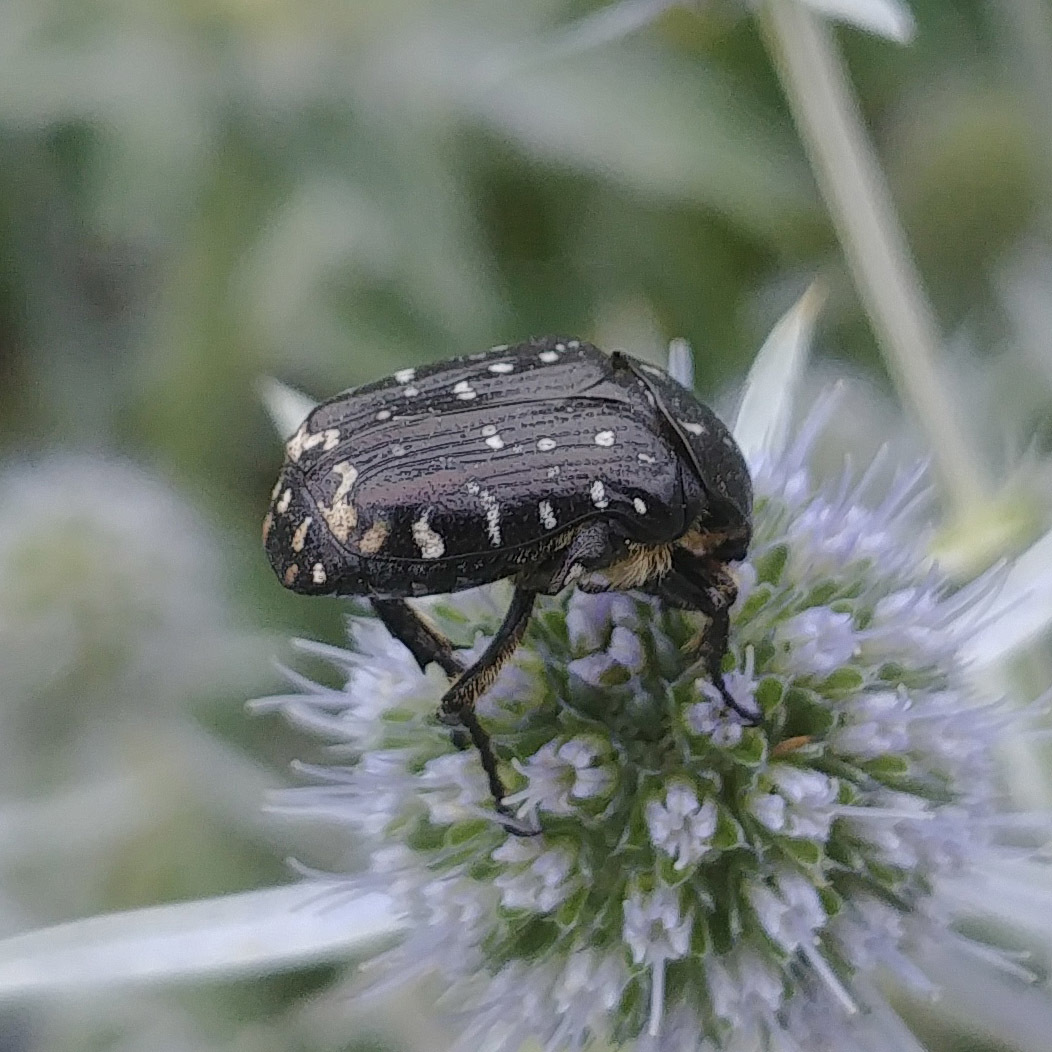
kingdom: Animalia
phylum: Arthropoda
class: Insecta
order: Coleoptera
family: Scarabaeidae
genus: Oxythyrea
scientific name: Oxythyrea funesta
